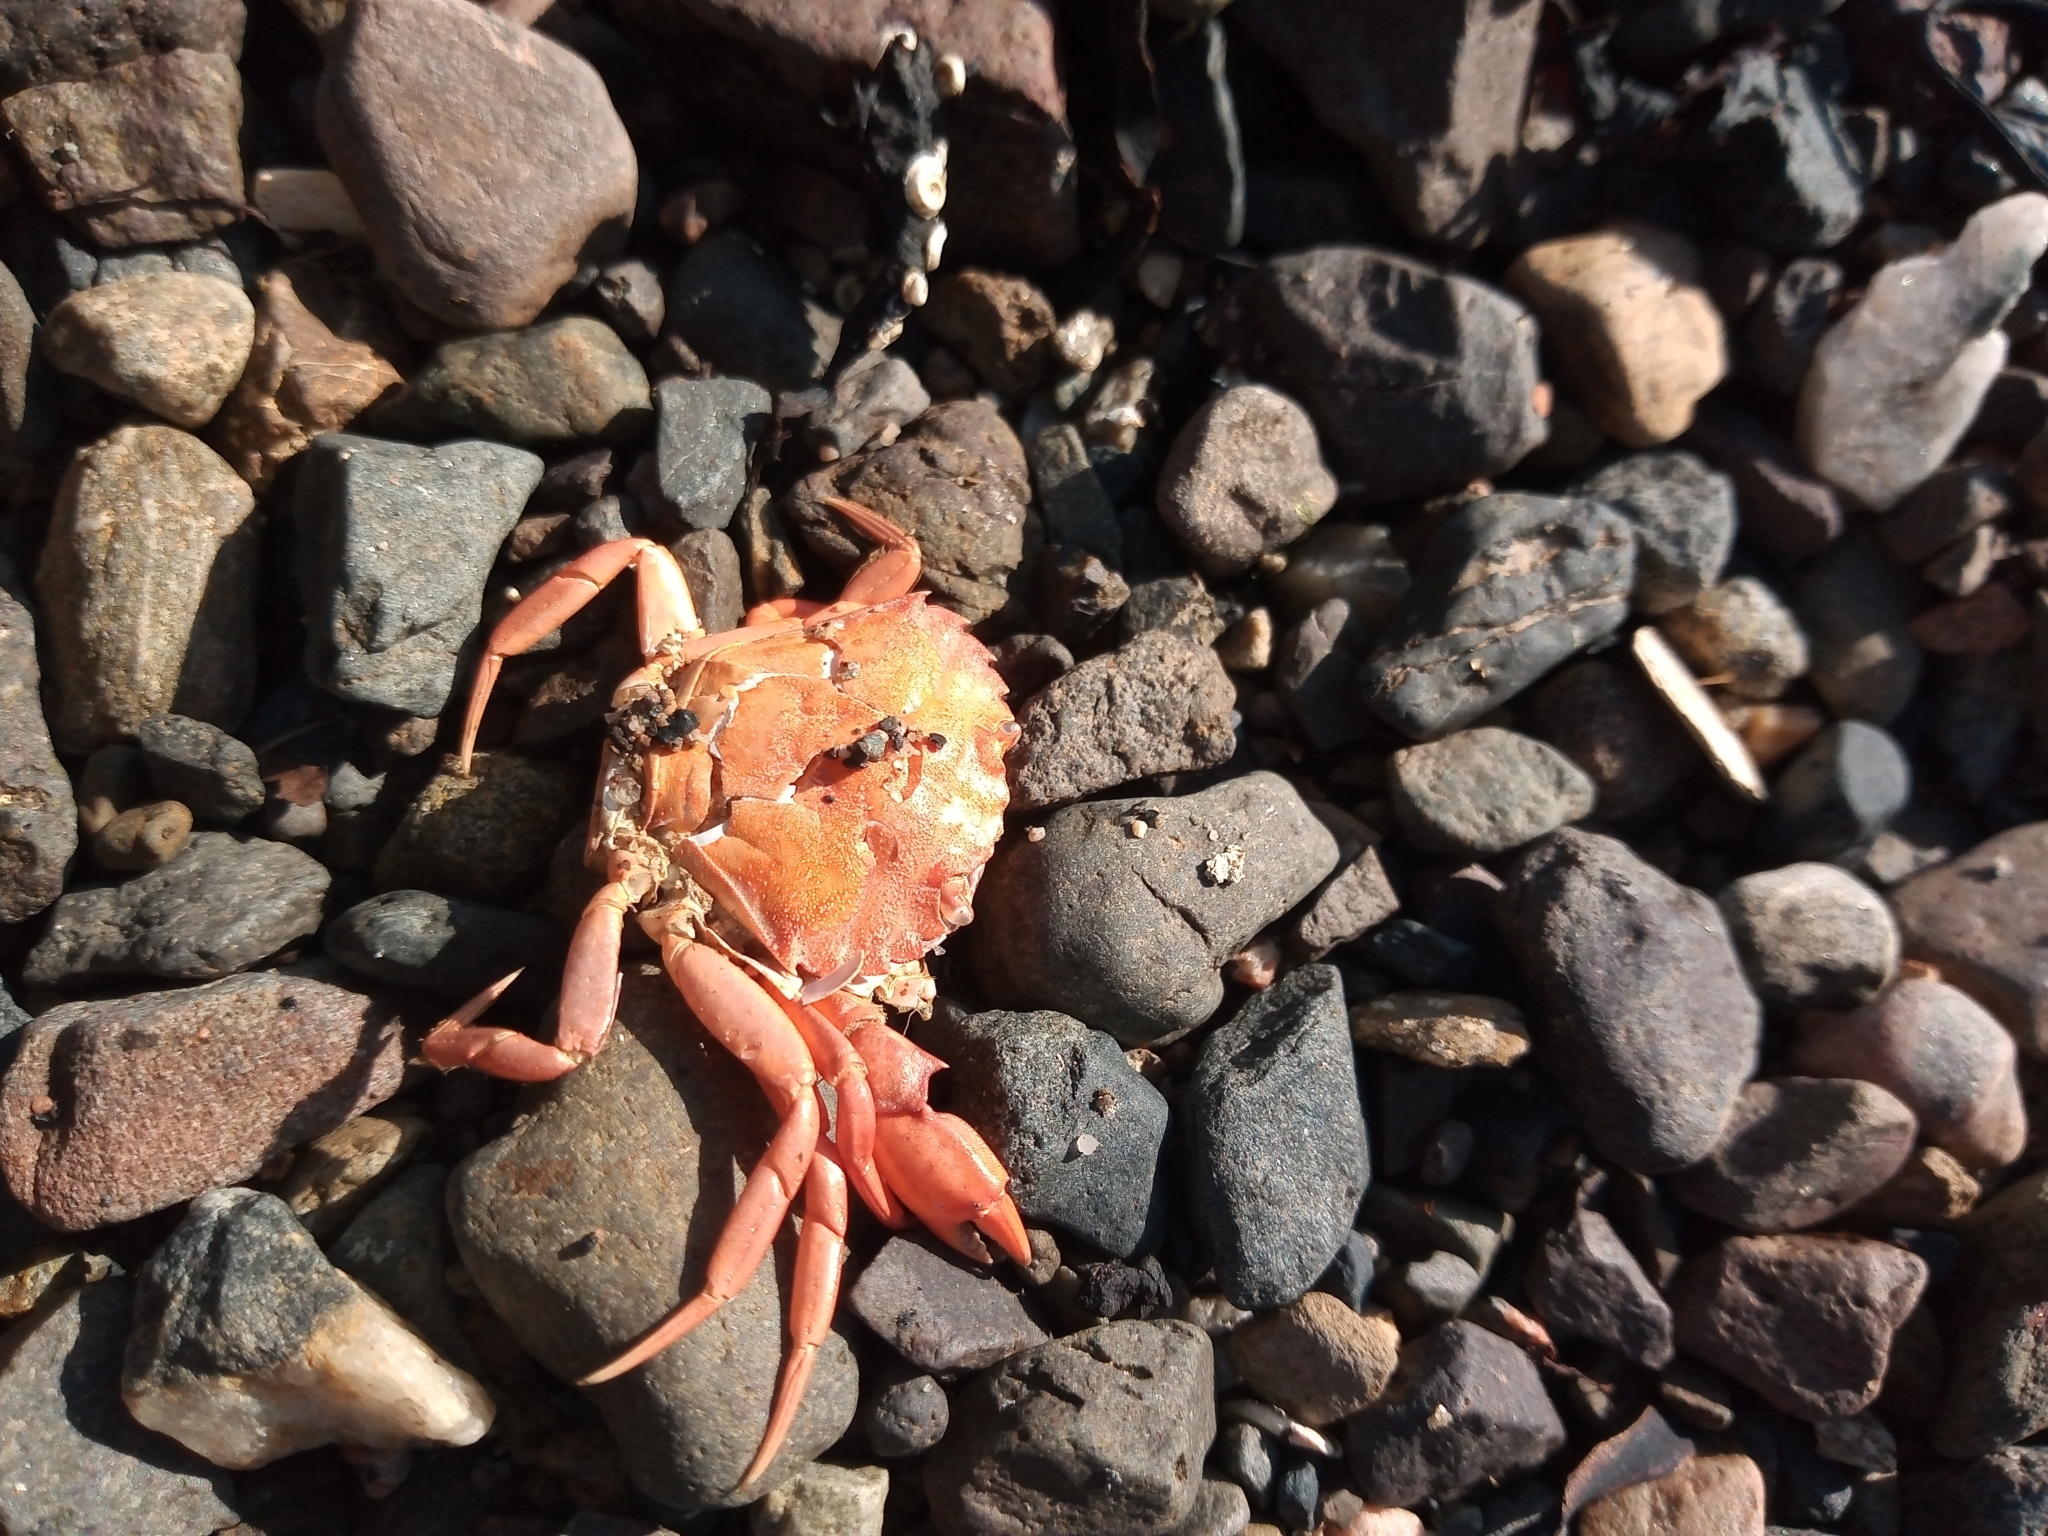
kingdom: Animalia
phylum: Arthropoda
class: Malacostraca
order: Decapoda
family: Carcinidae
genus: Carcinus
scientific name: Carcinus maenas
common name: European green crab
